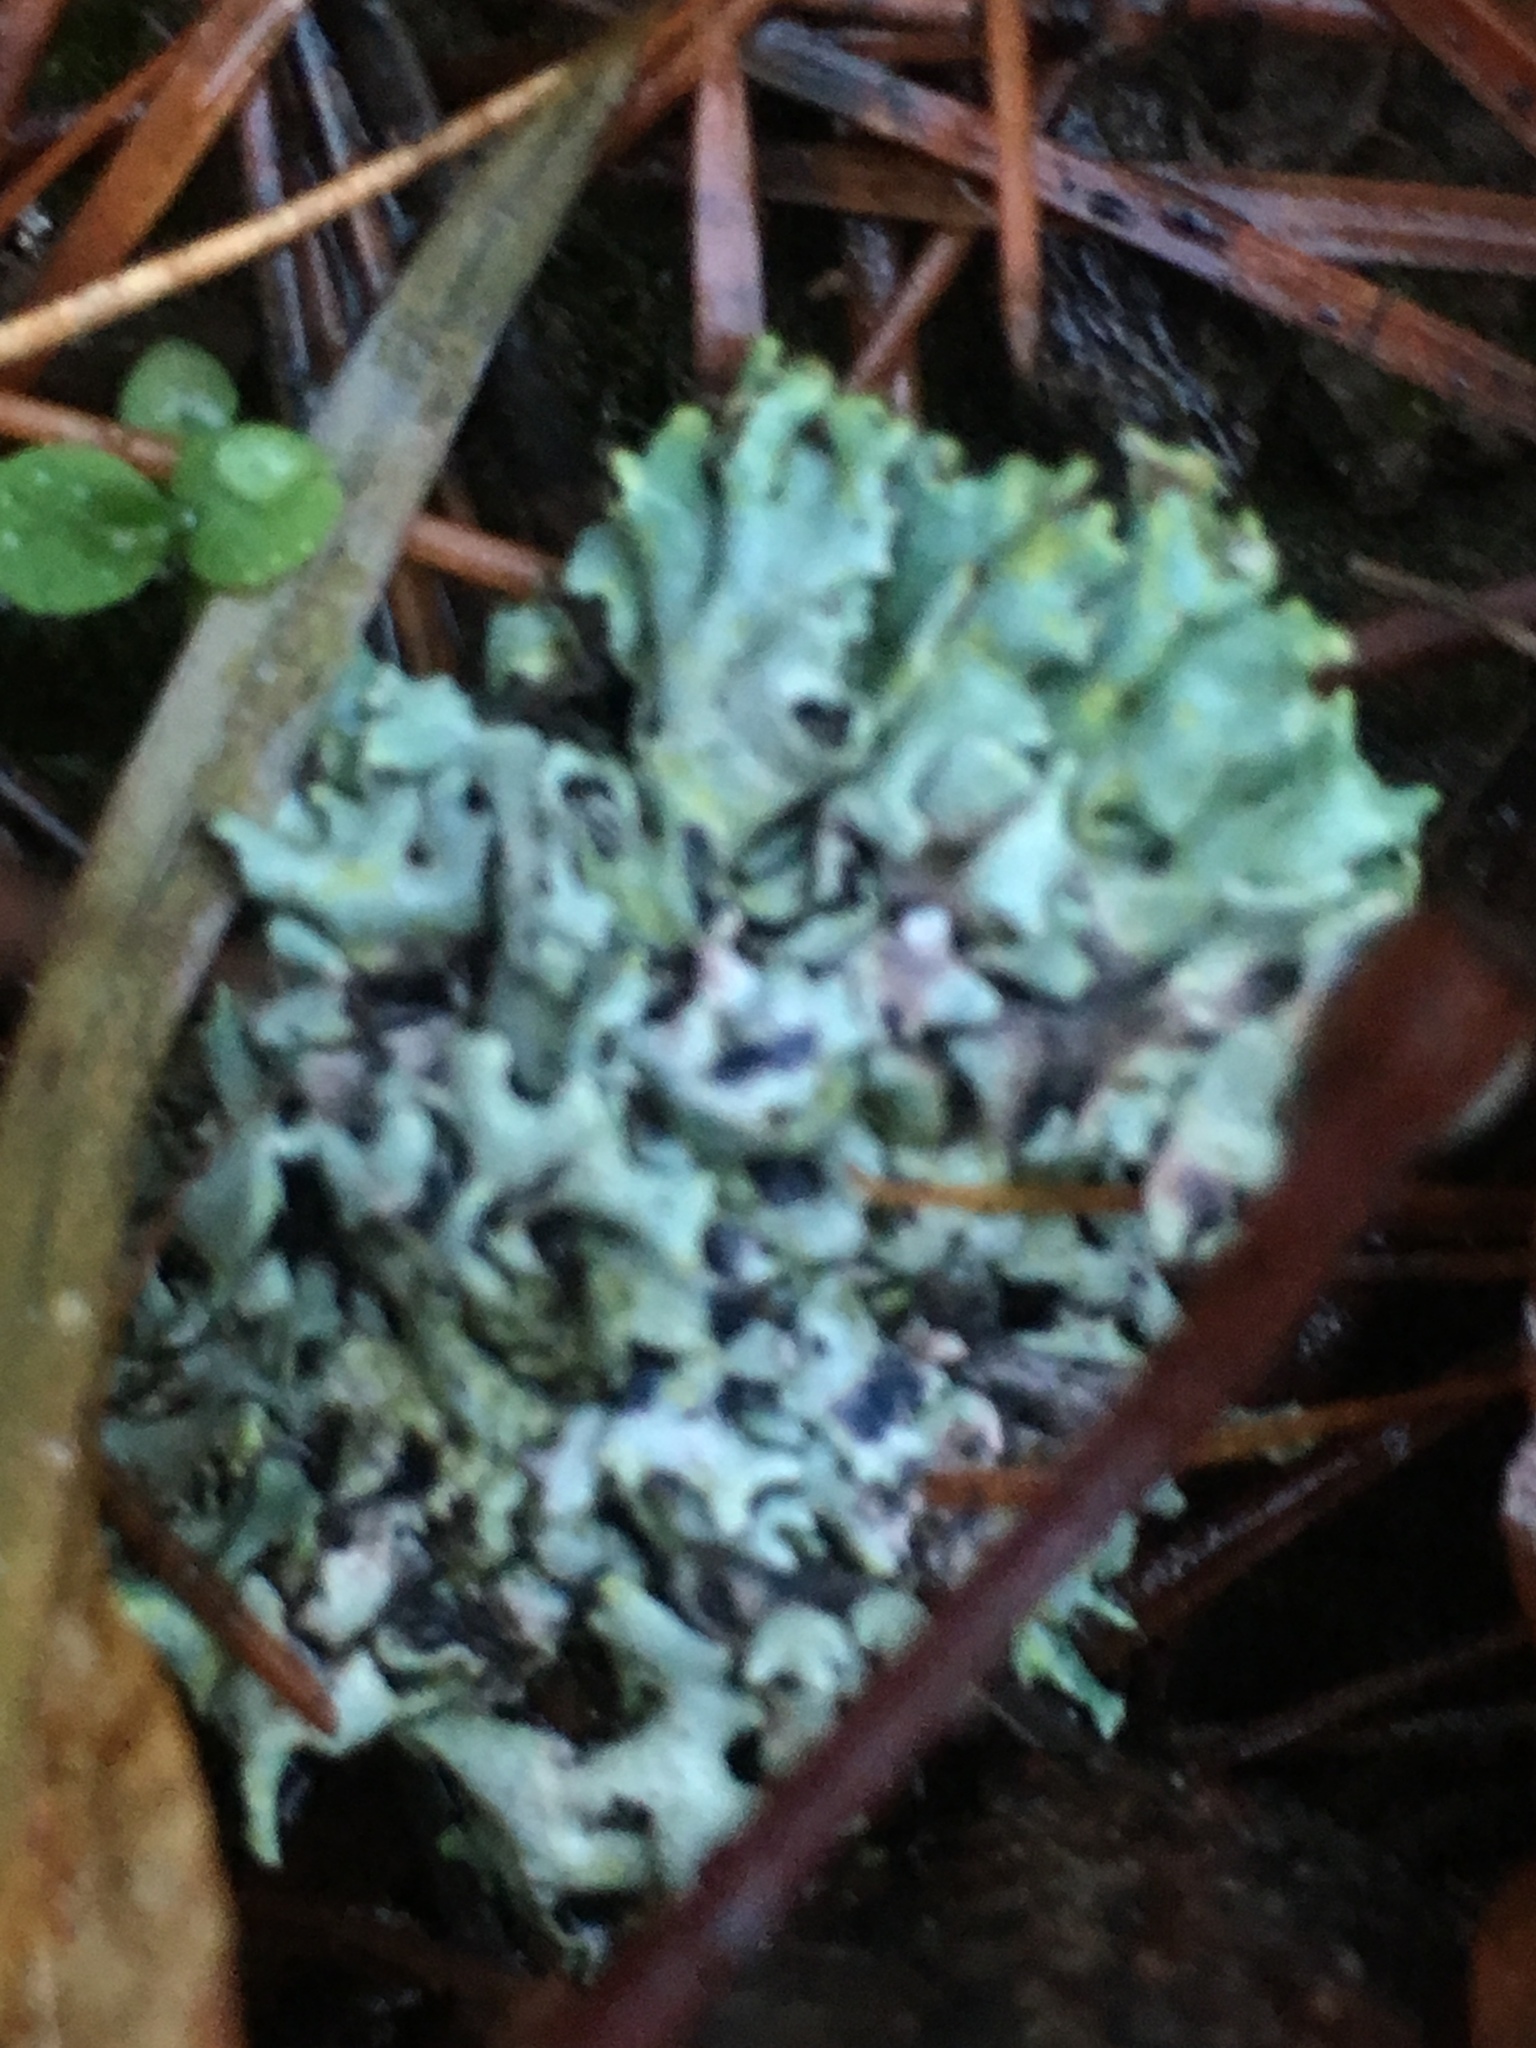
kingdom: Fungi
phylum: Ascomycota
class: Lecanoromycetes
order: Lecanorales
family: Parmeliaceae
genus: Hypogymnia
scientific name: Hypogymnia physodes
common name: Dark crottle
